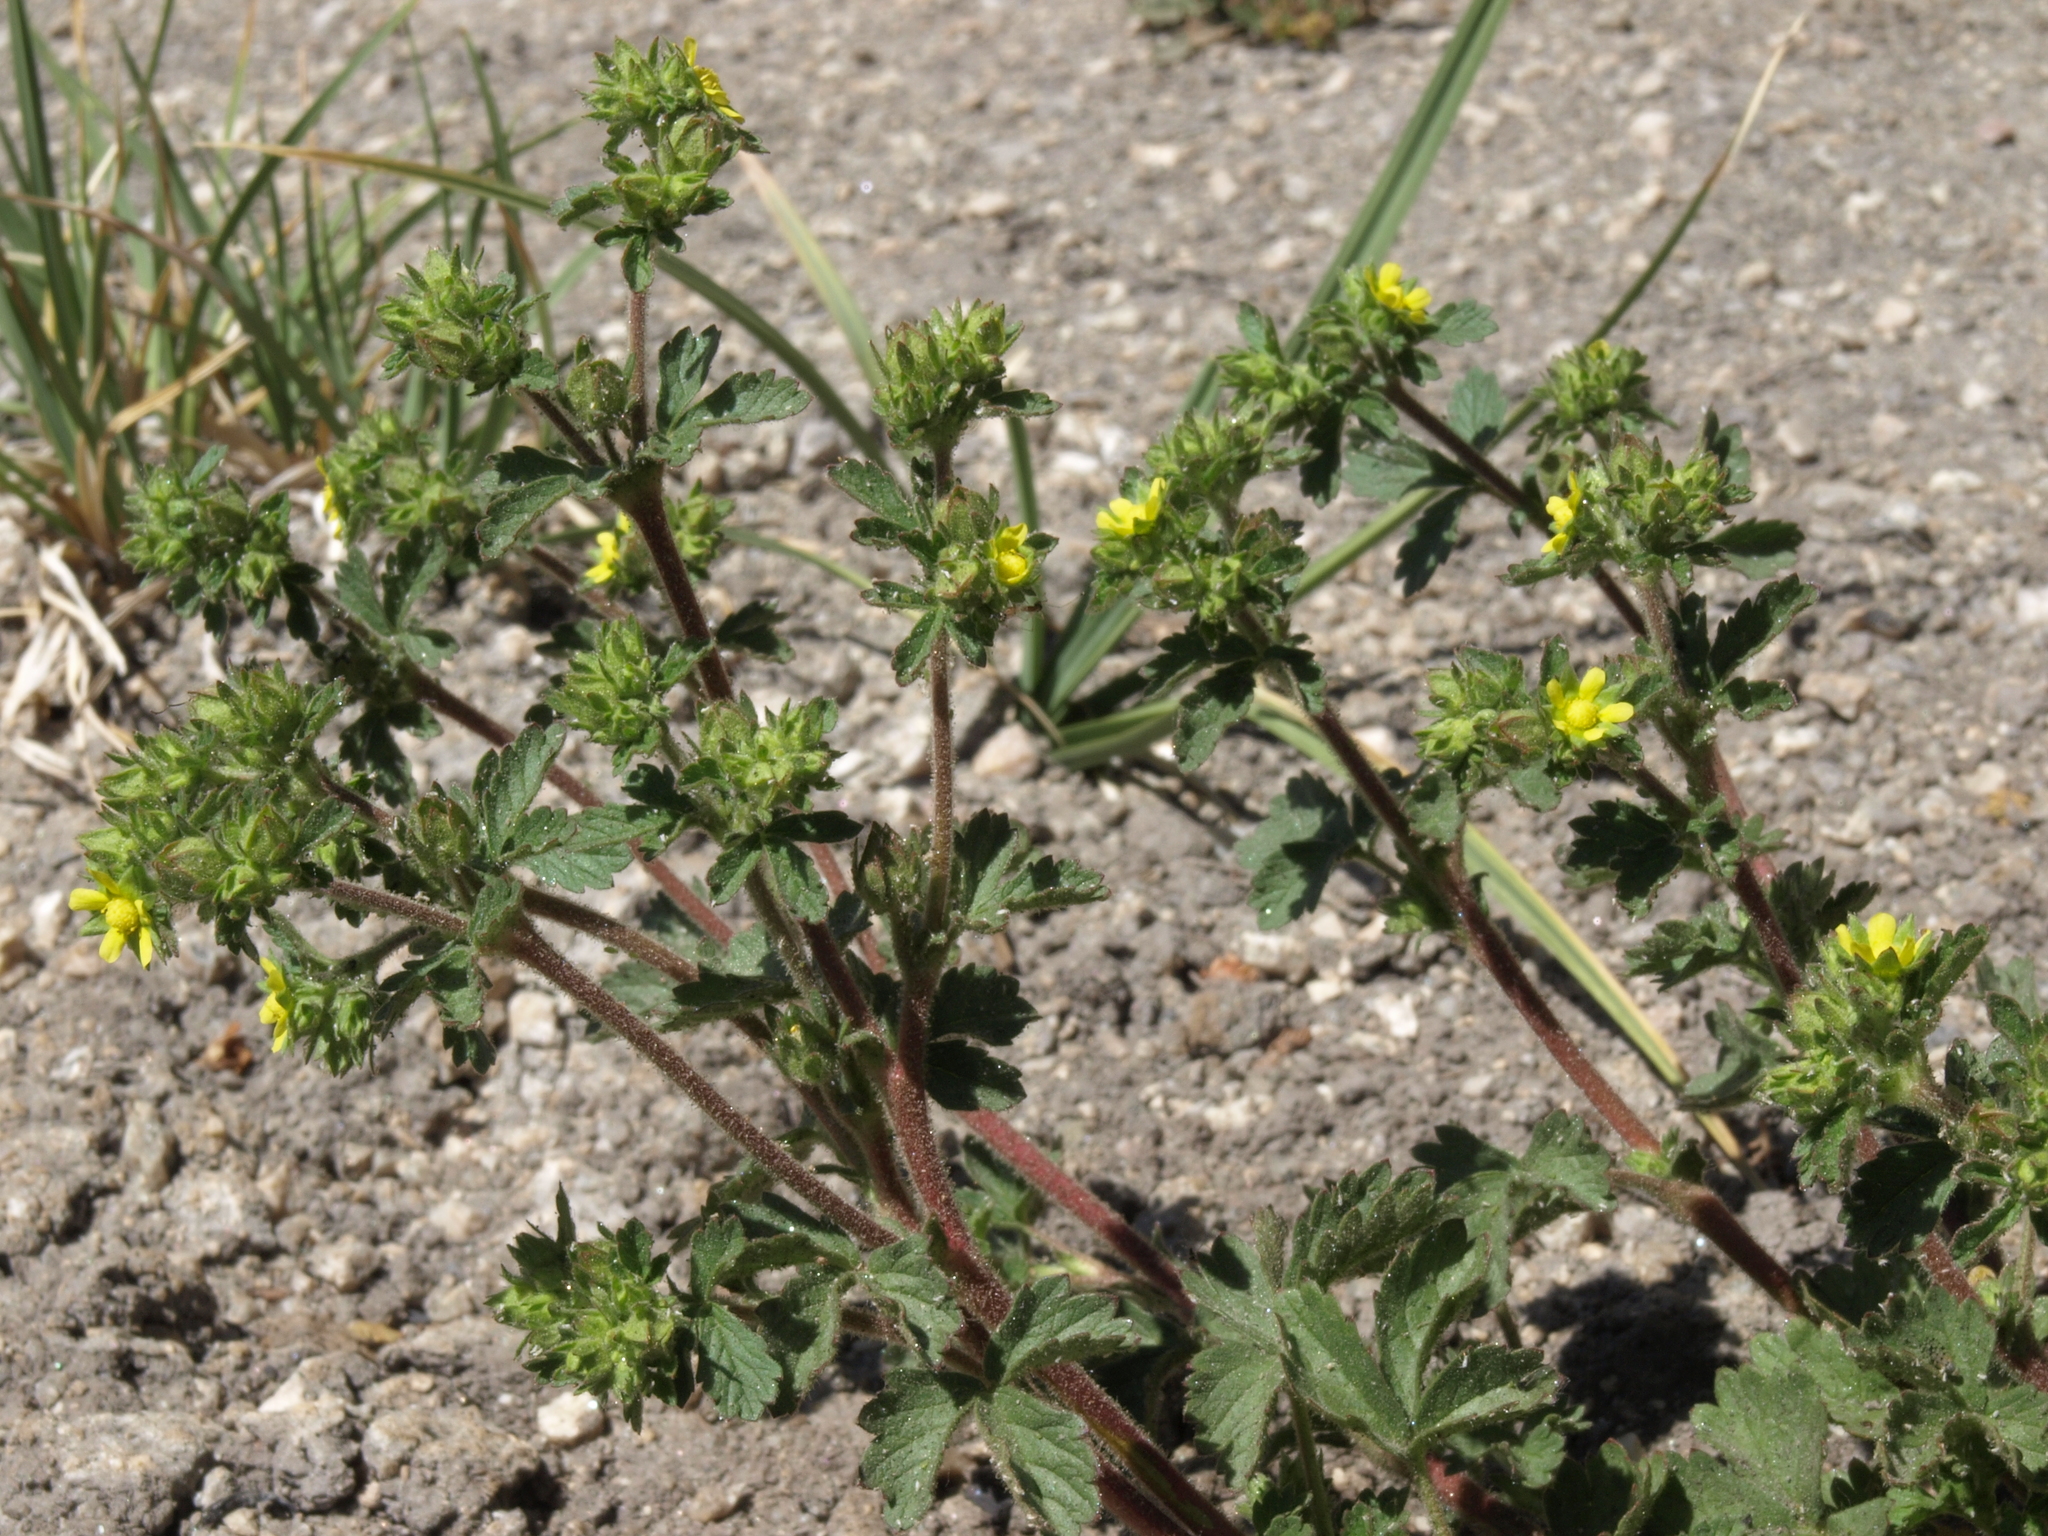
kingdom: Plantae
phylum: Tracheophyta
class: Magnoliopsida
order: Rosales
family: Rosaceae
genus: Potentilla
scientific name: Potentilla biennis
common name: Greene's cinquefoil
